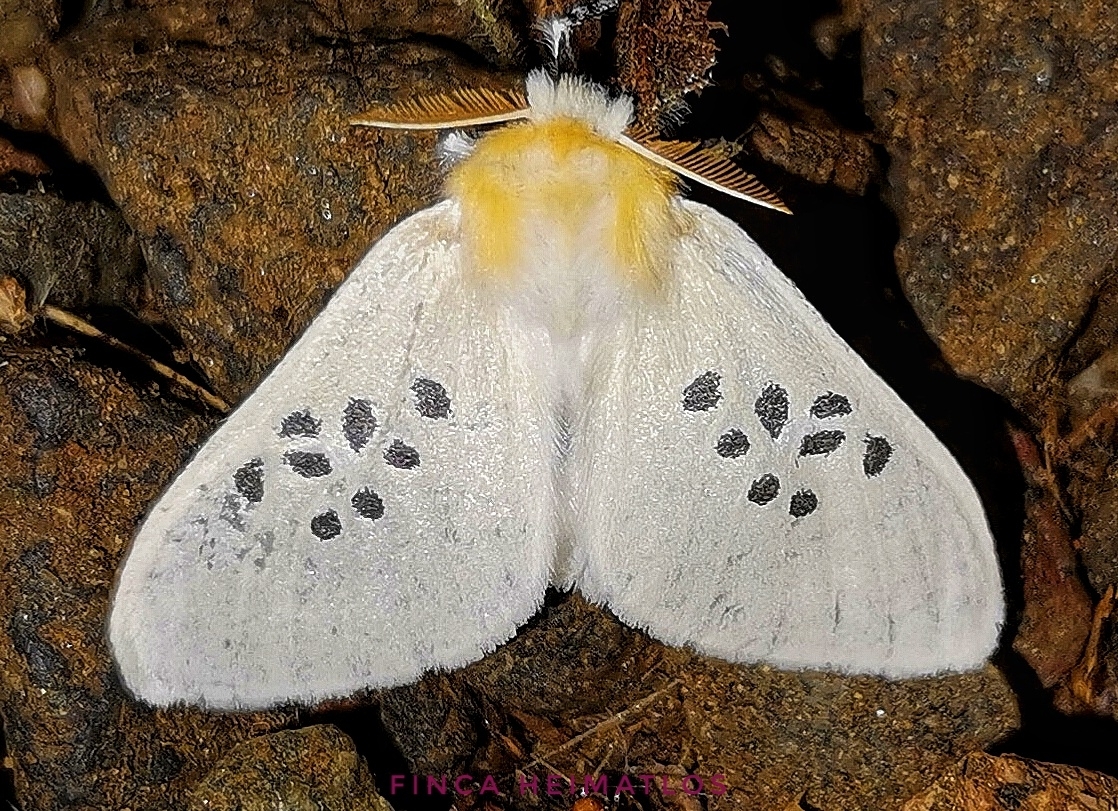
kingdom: Animalia
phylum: Arthropoda
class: Insecta
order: Lepidoptera
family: Erebidae
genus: Thagona
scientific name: Thagona nigrisparsus
